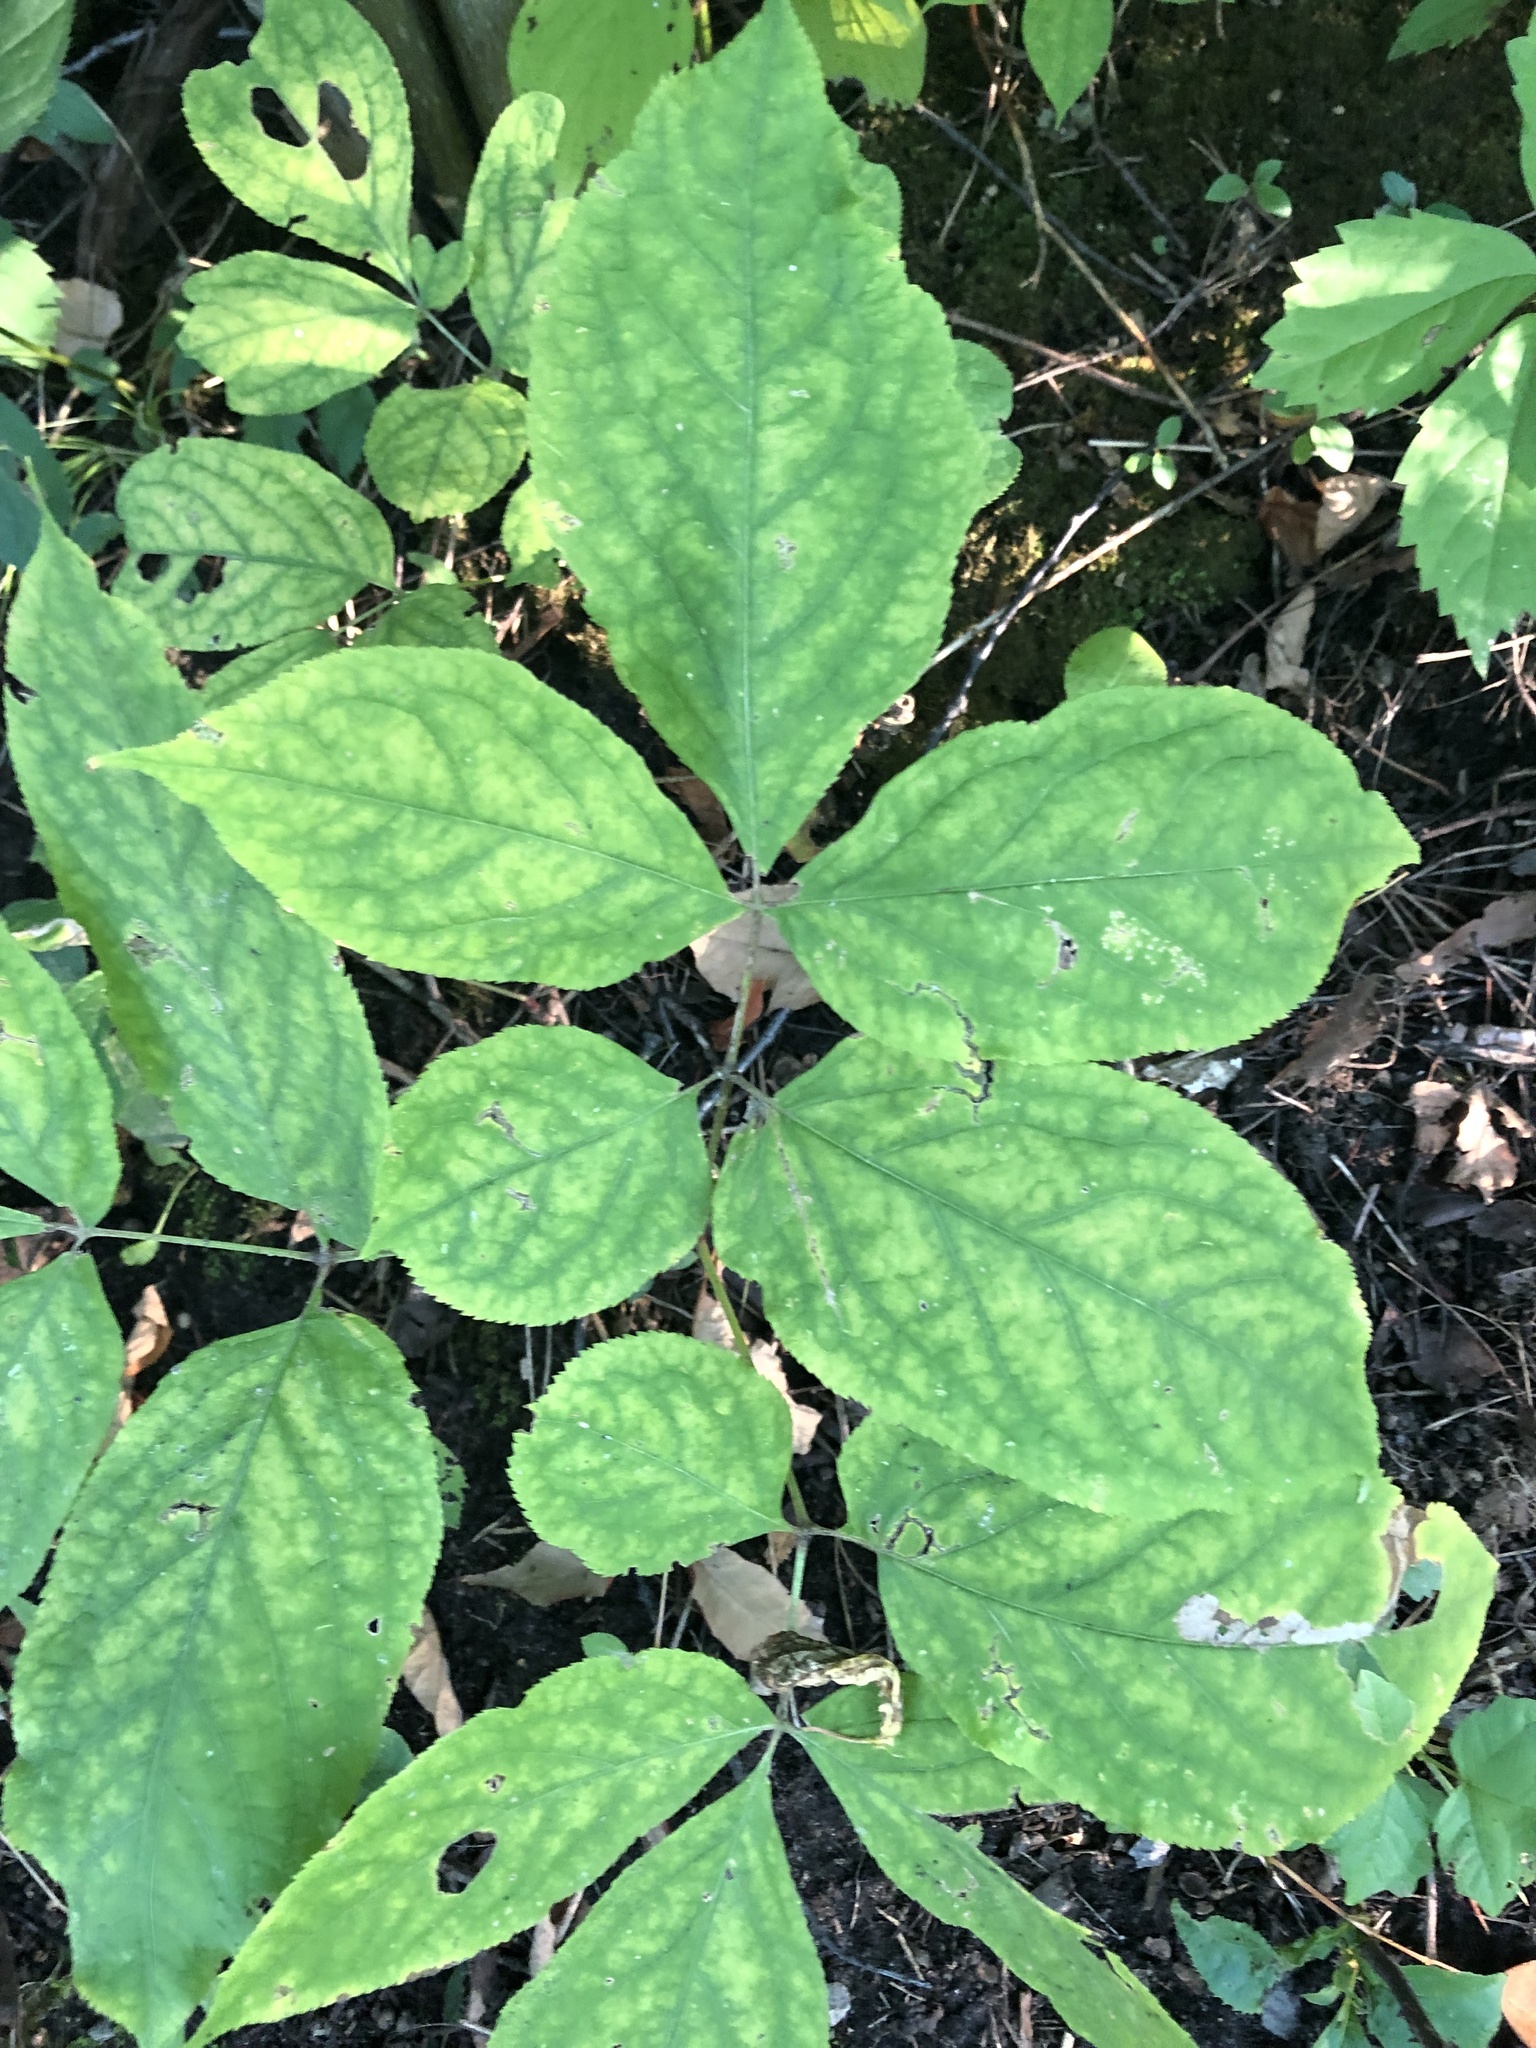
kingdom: Plantae
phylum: Tracheophyta
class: Magnoliopsida
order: Apiales
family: Araliaceae
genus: Aralia
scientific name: Aralia nudicaulis
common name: Wild sarsaparilla
